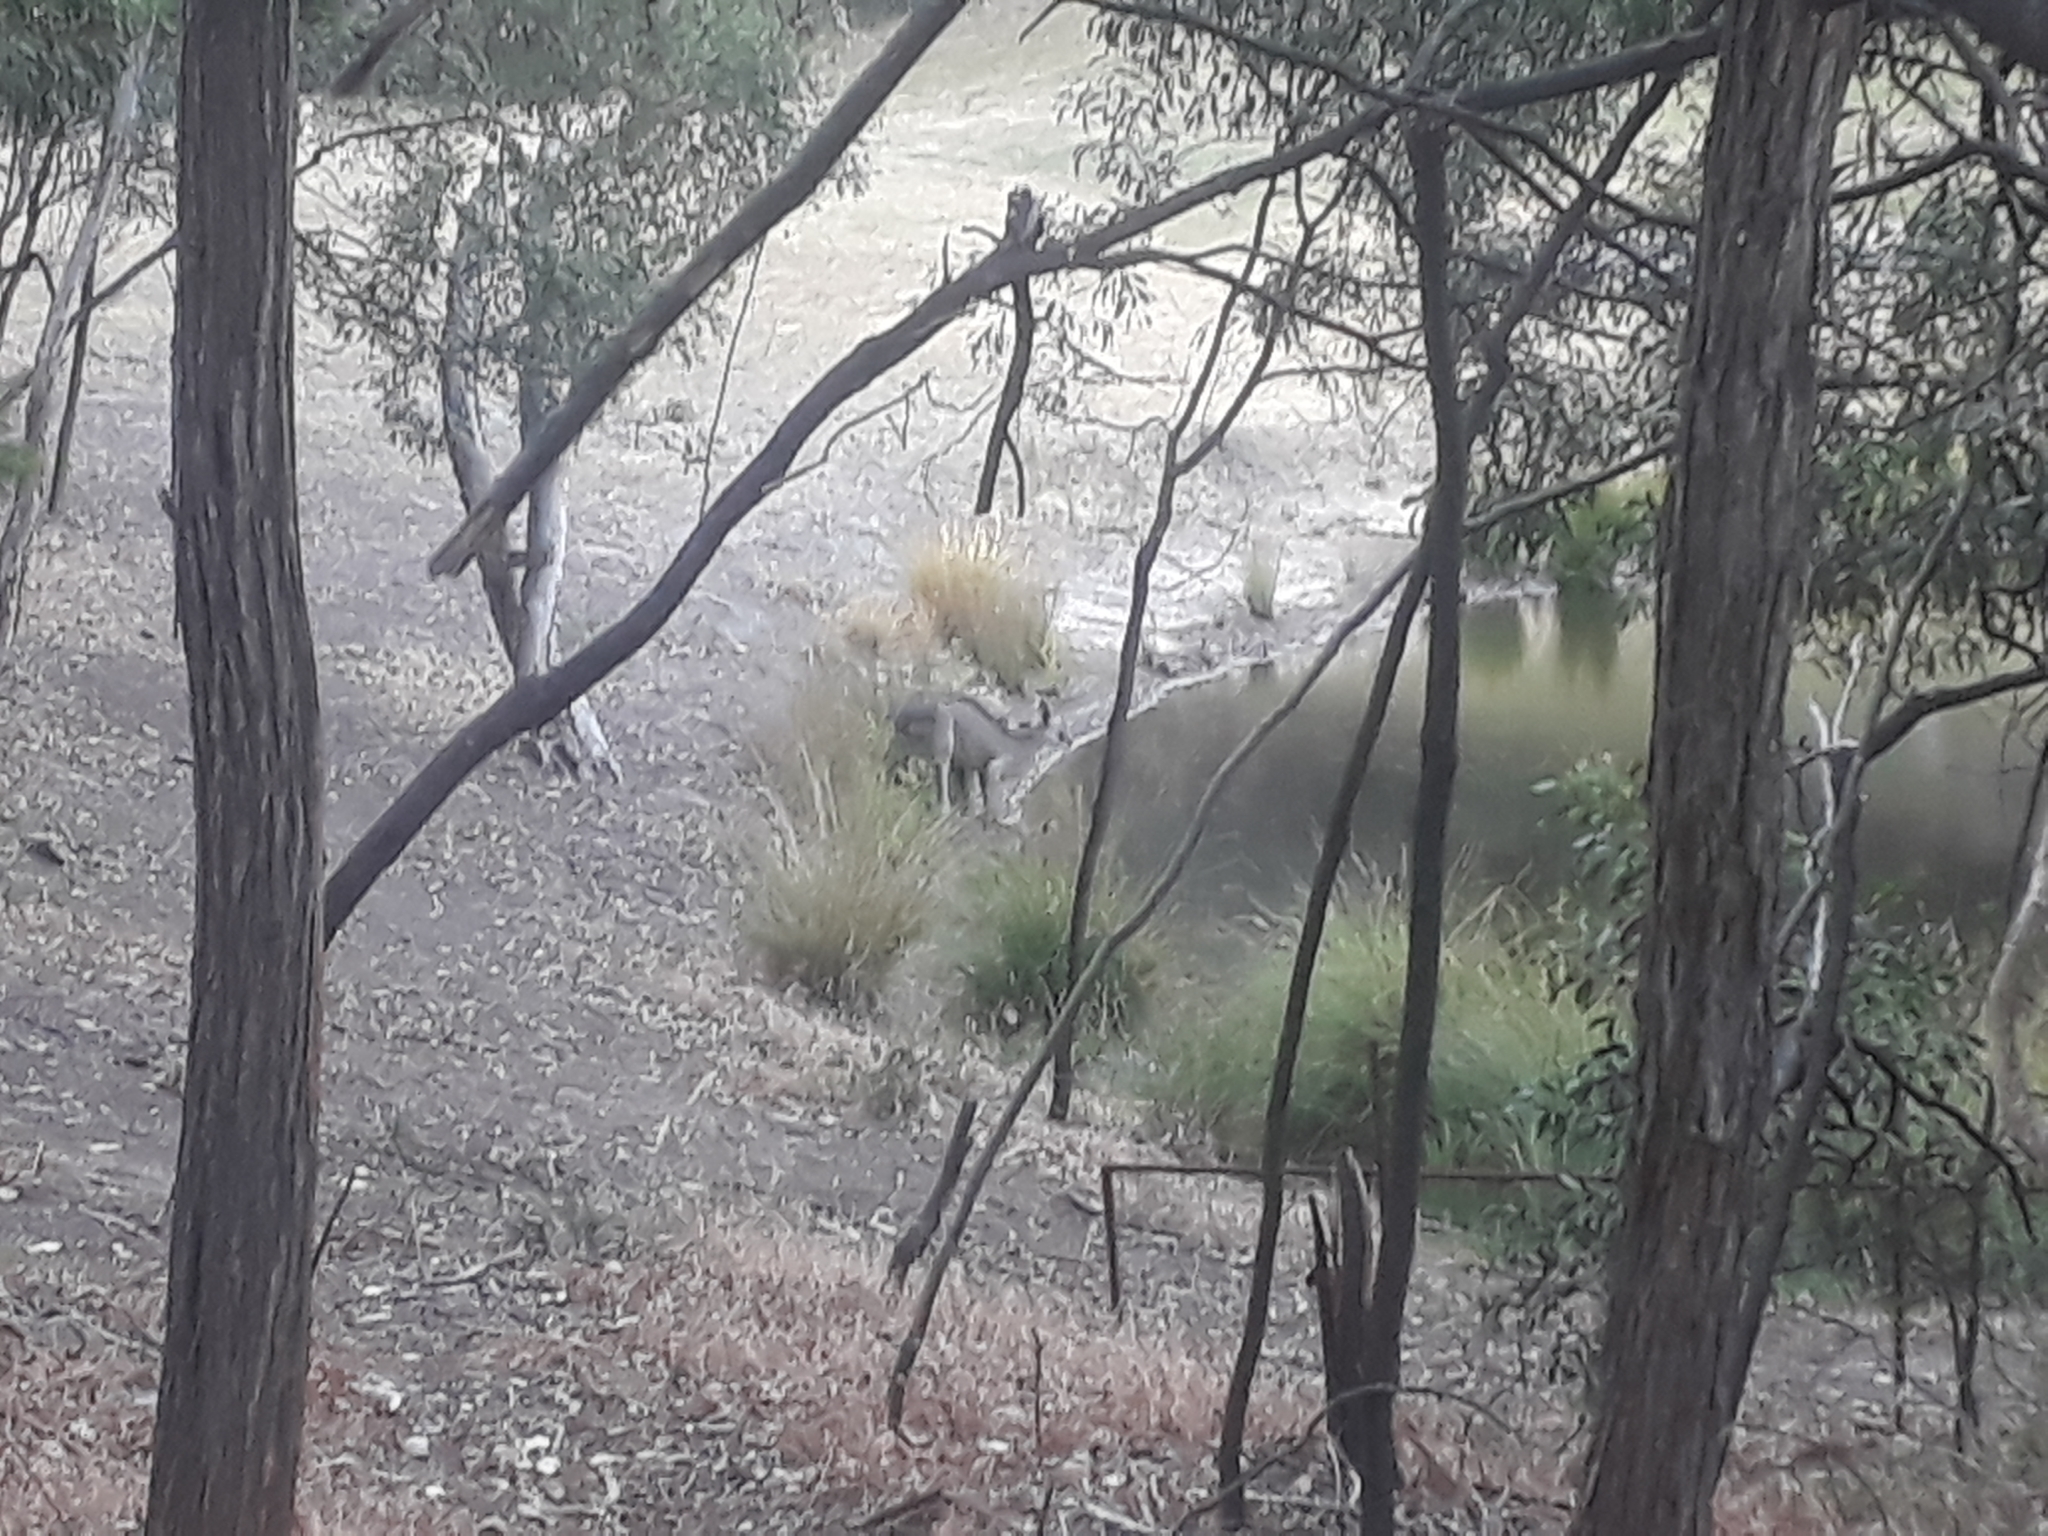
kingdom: Animalia
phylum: Chordata
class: Mammalia
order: Diprotodontia
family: Macropodidae
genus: Macropus
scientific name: Macropus giganteus
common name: Eastern grey kangaroo
